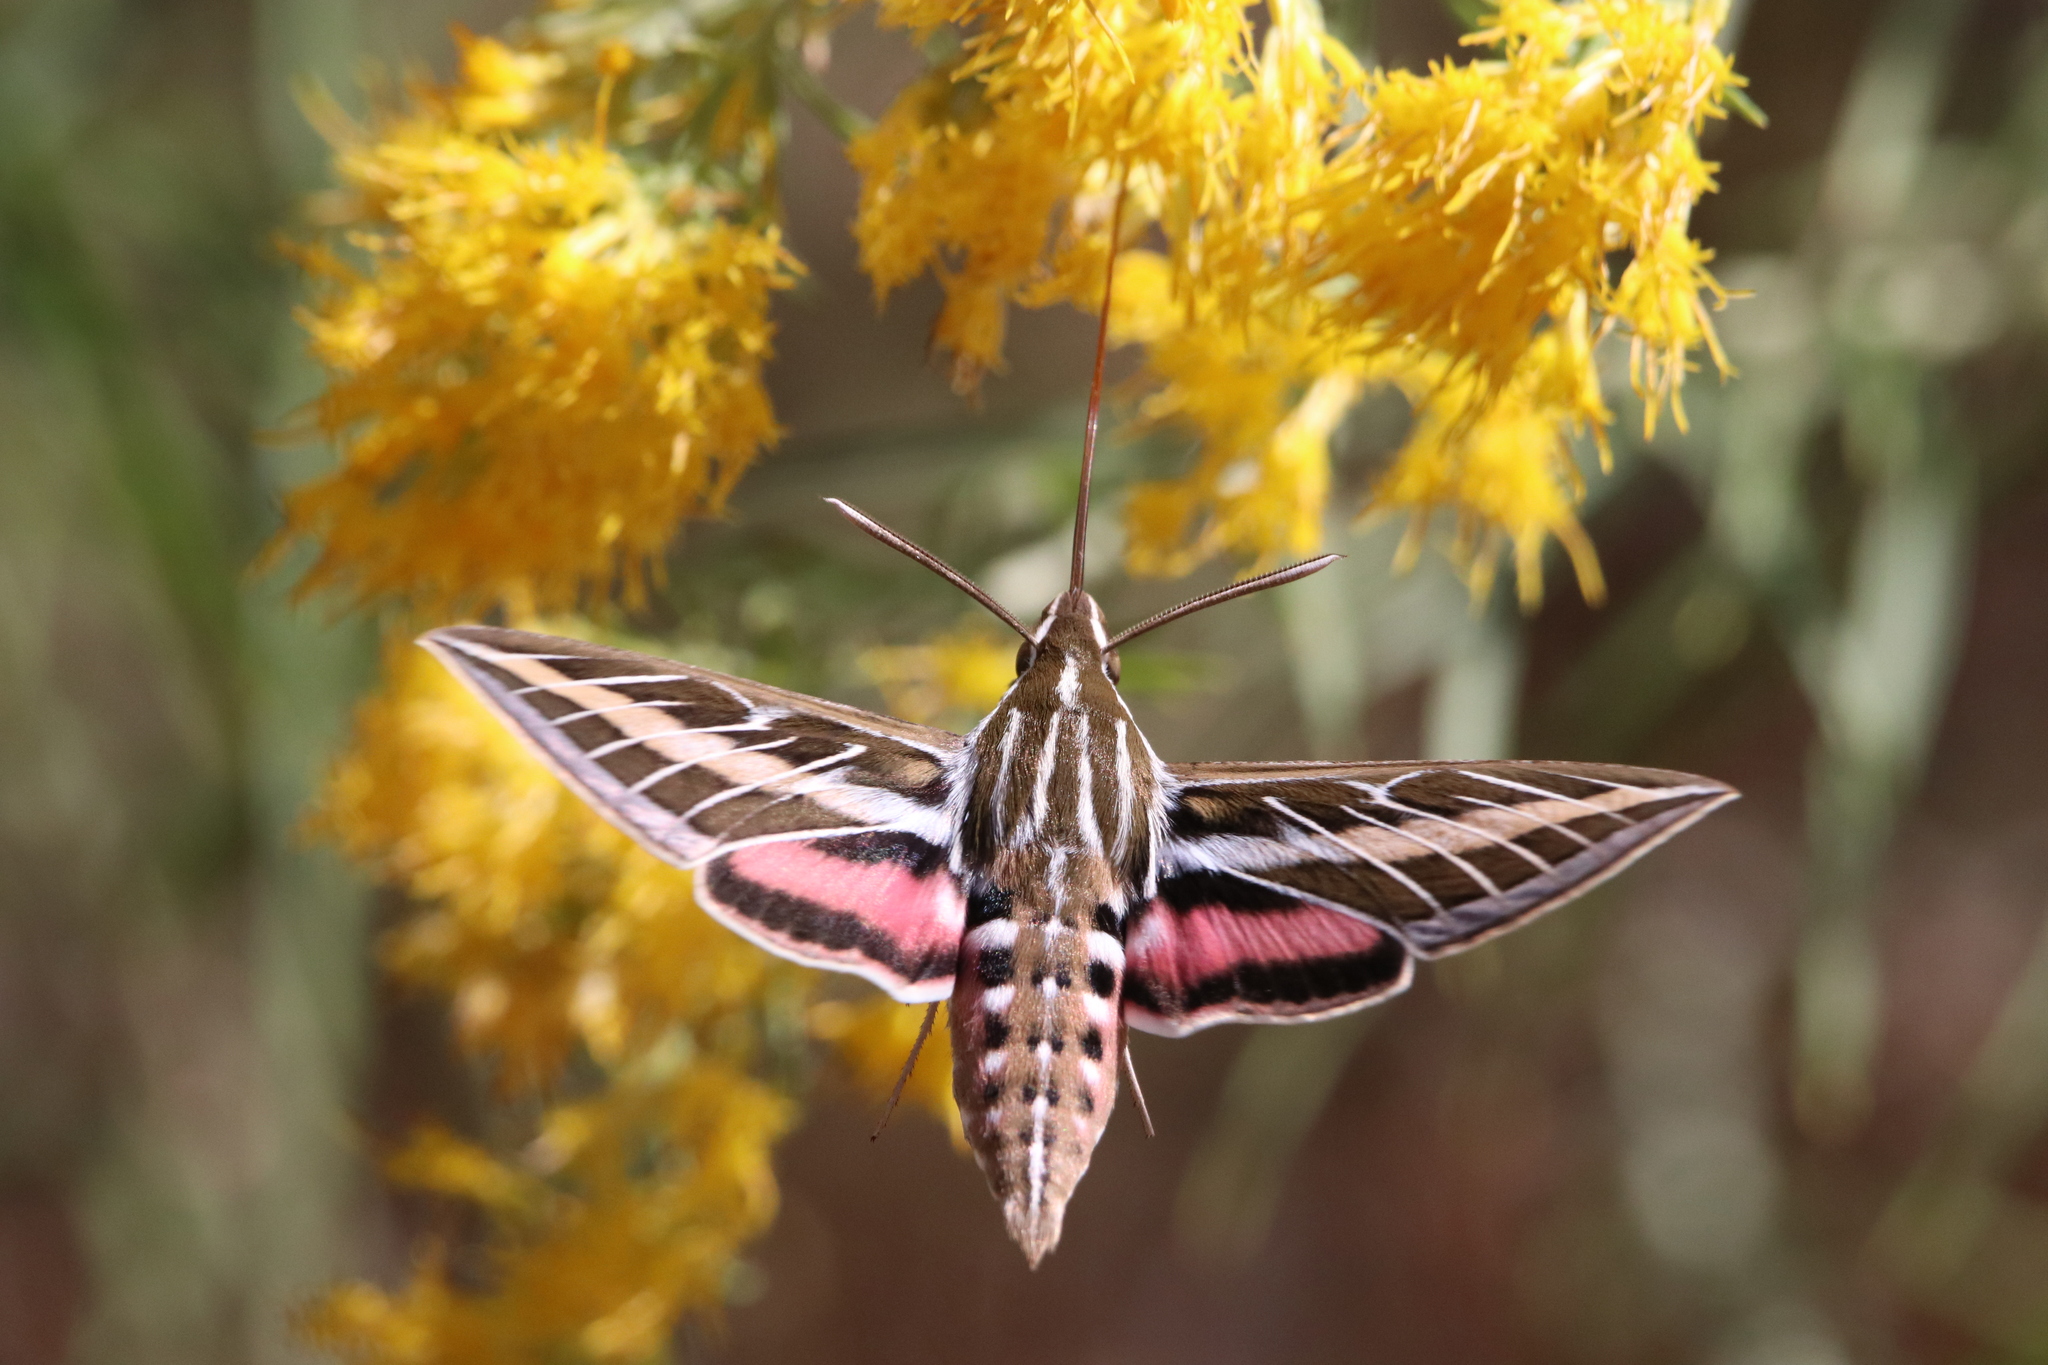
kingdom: Animalia
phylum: Arthropoda
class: Insecta
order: Lepidoptera
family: Sphingidae
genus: Hyles
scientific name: Hyles lineata
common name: White-lined sphinx
